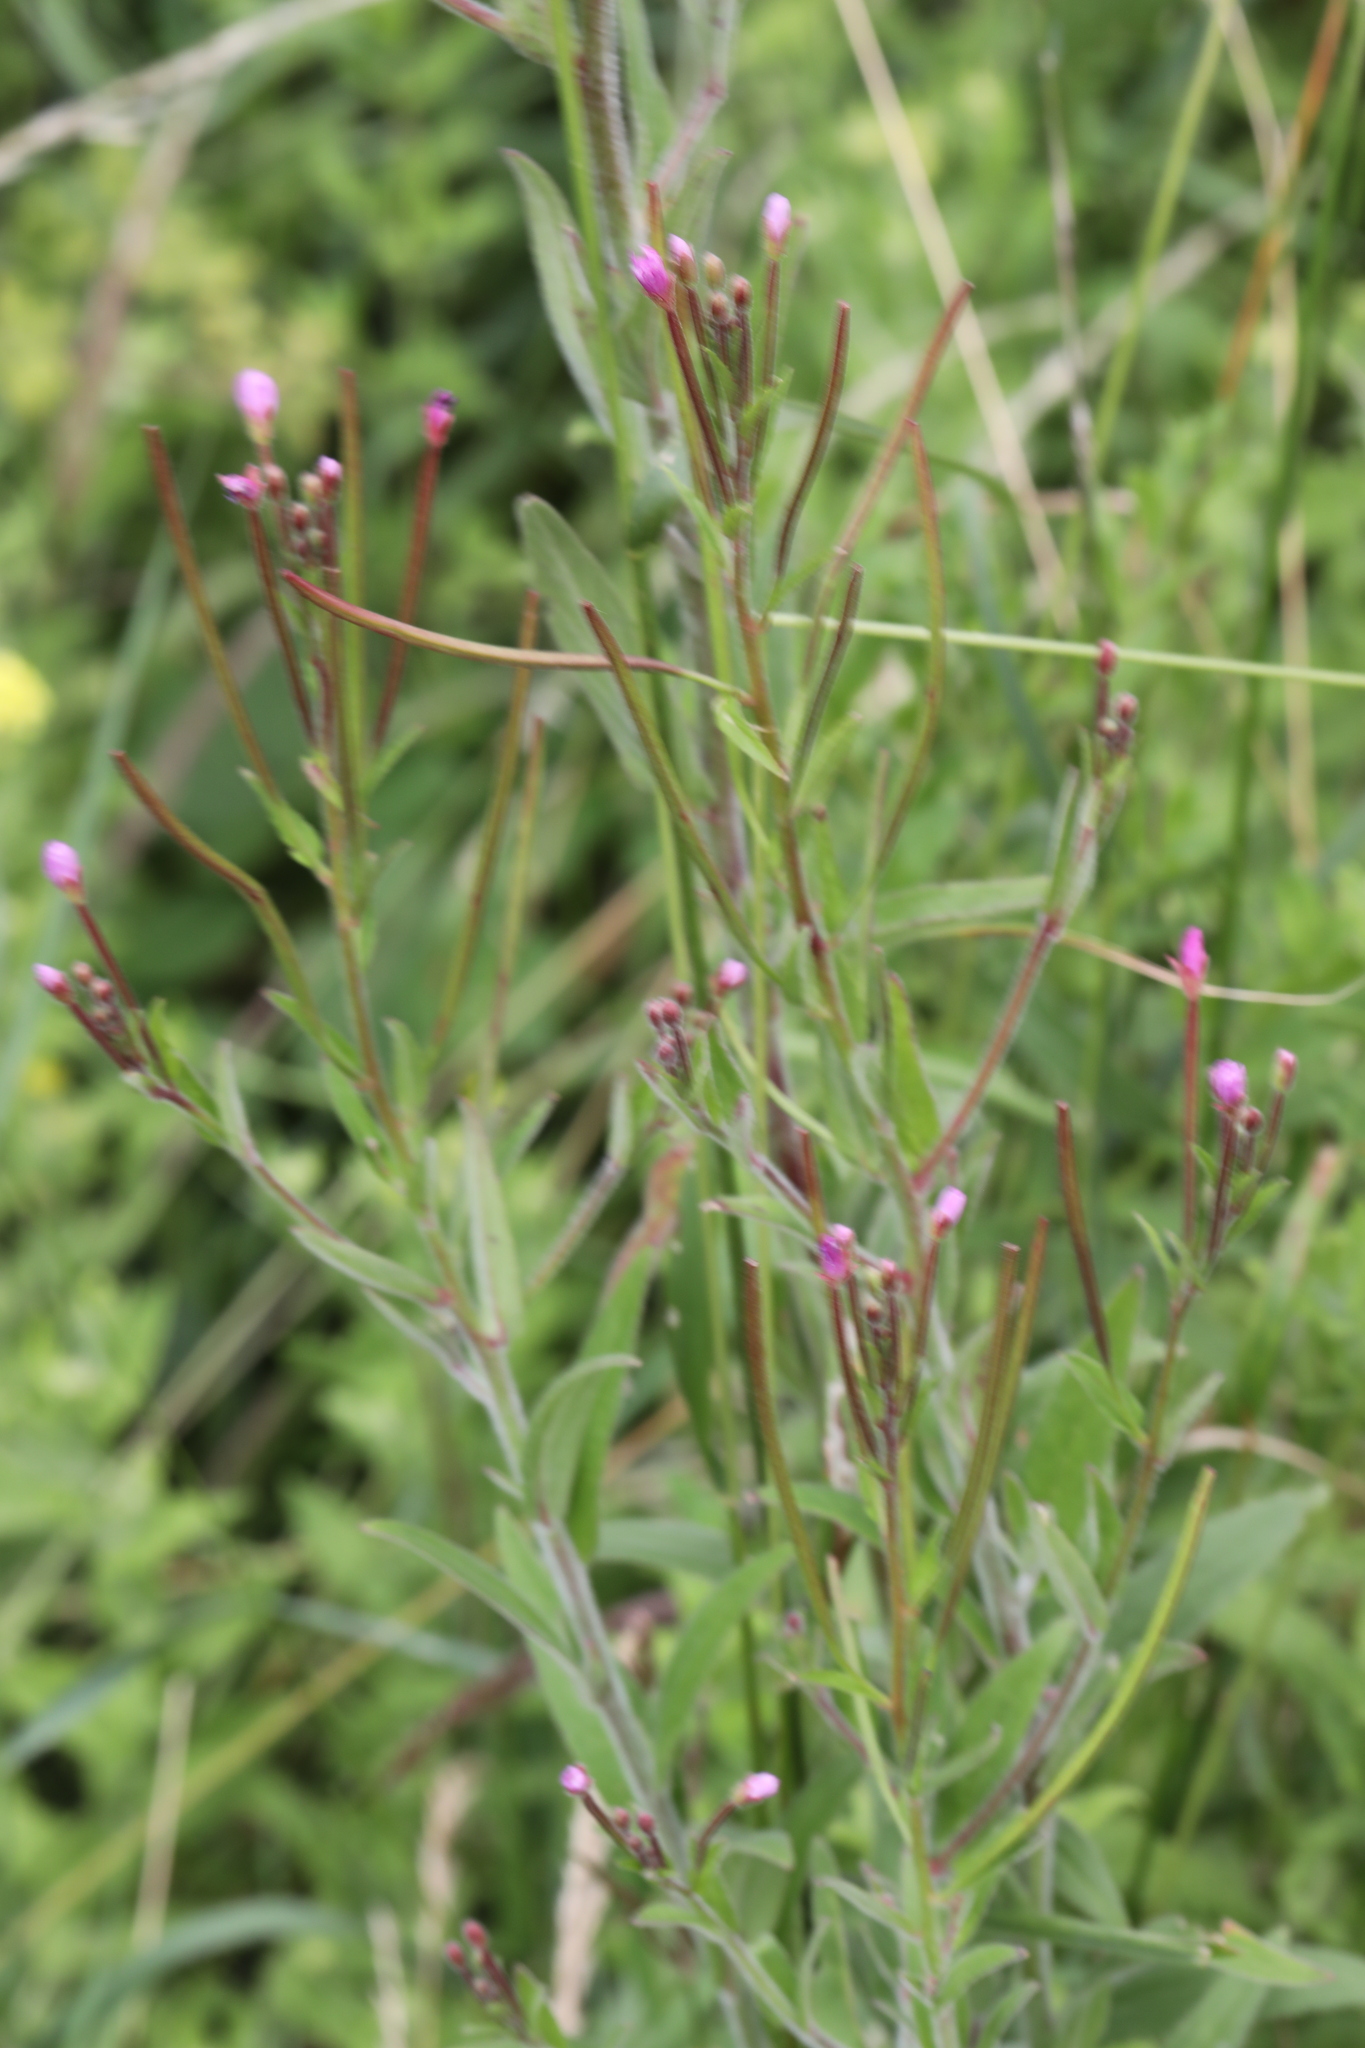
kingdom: Plantae
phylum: Tracheophyta
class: Magnoliopsida
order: Myrtales
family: Onagraceae
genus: Epilobium
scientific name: Epilobium parviflorum
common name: Hoary willowherb
